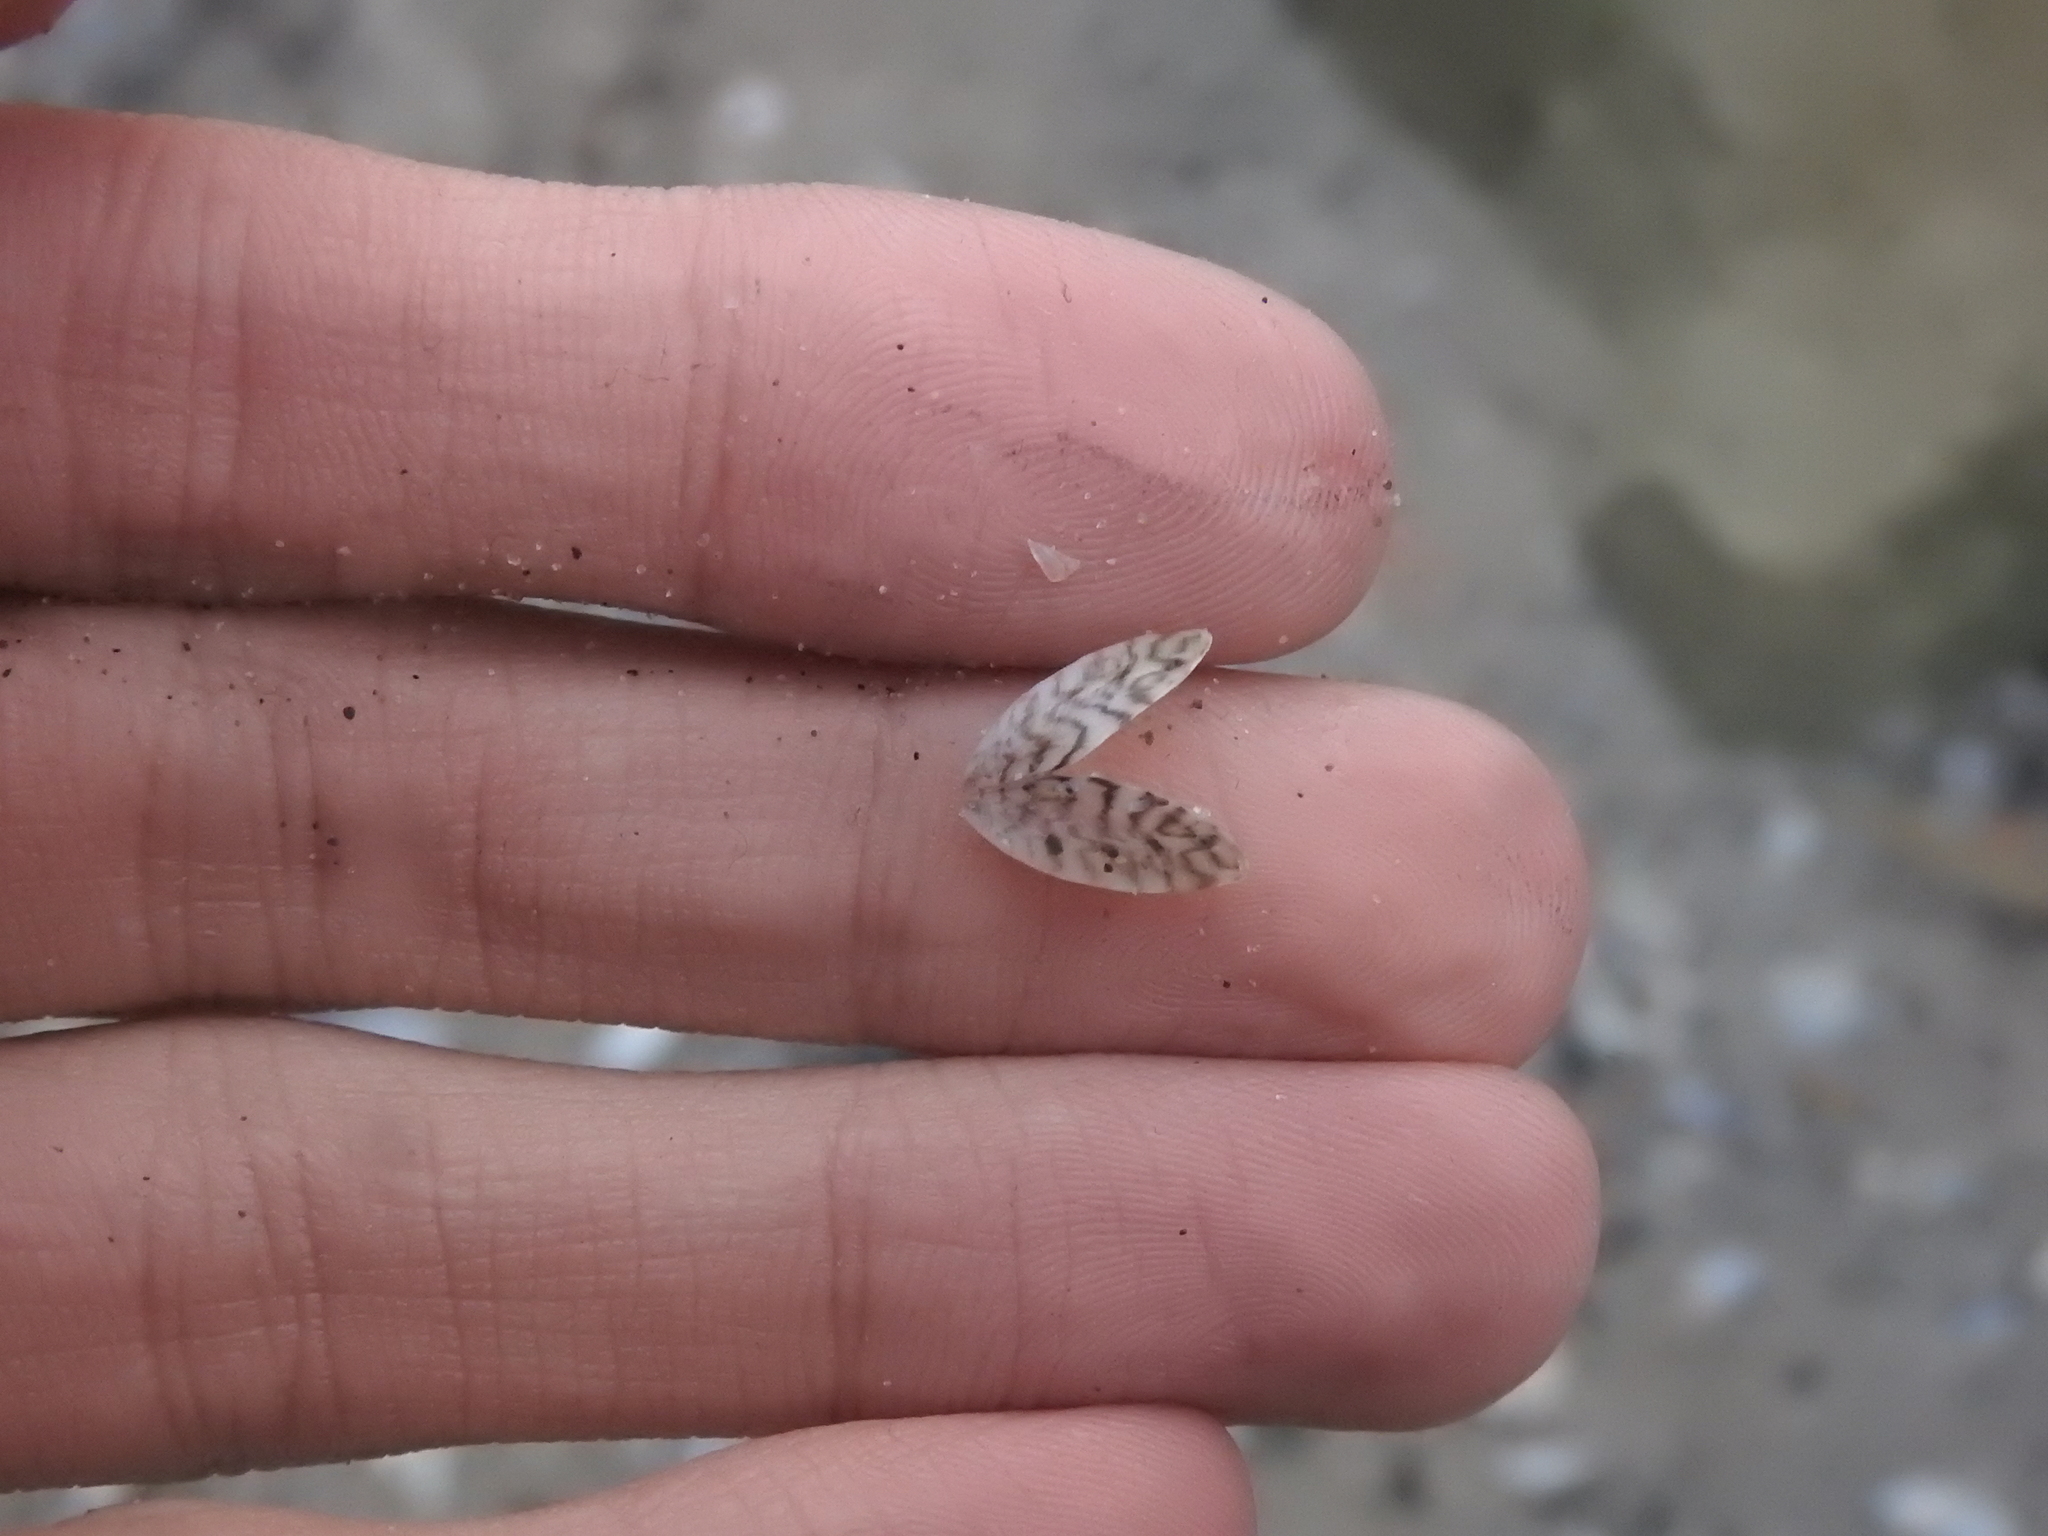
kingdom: Animalia
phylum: Mollusca
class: Bivalvia
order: Myida
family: Dreissenidae
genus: Dreissena
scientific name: Dreissena polymorpha
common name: Zebra mussel
